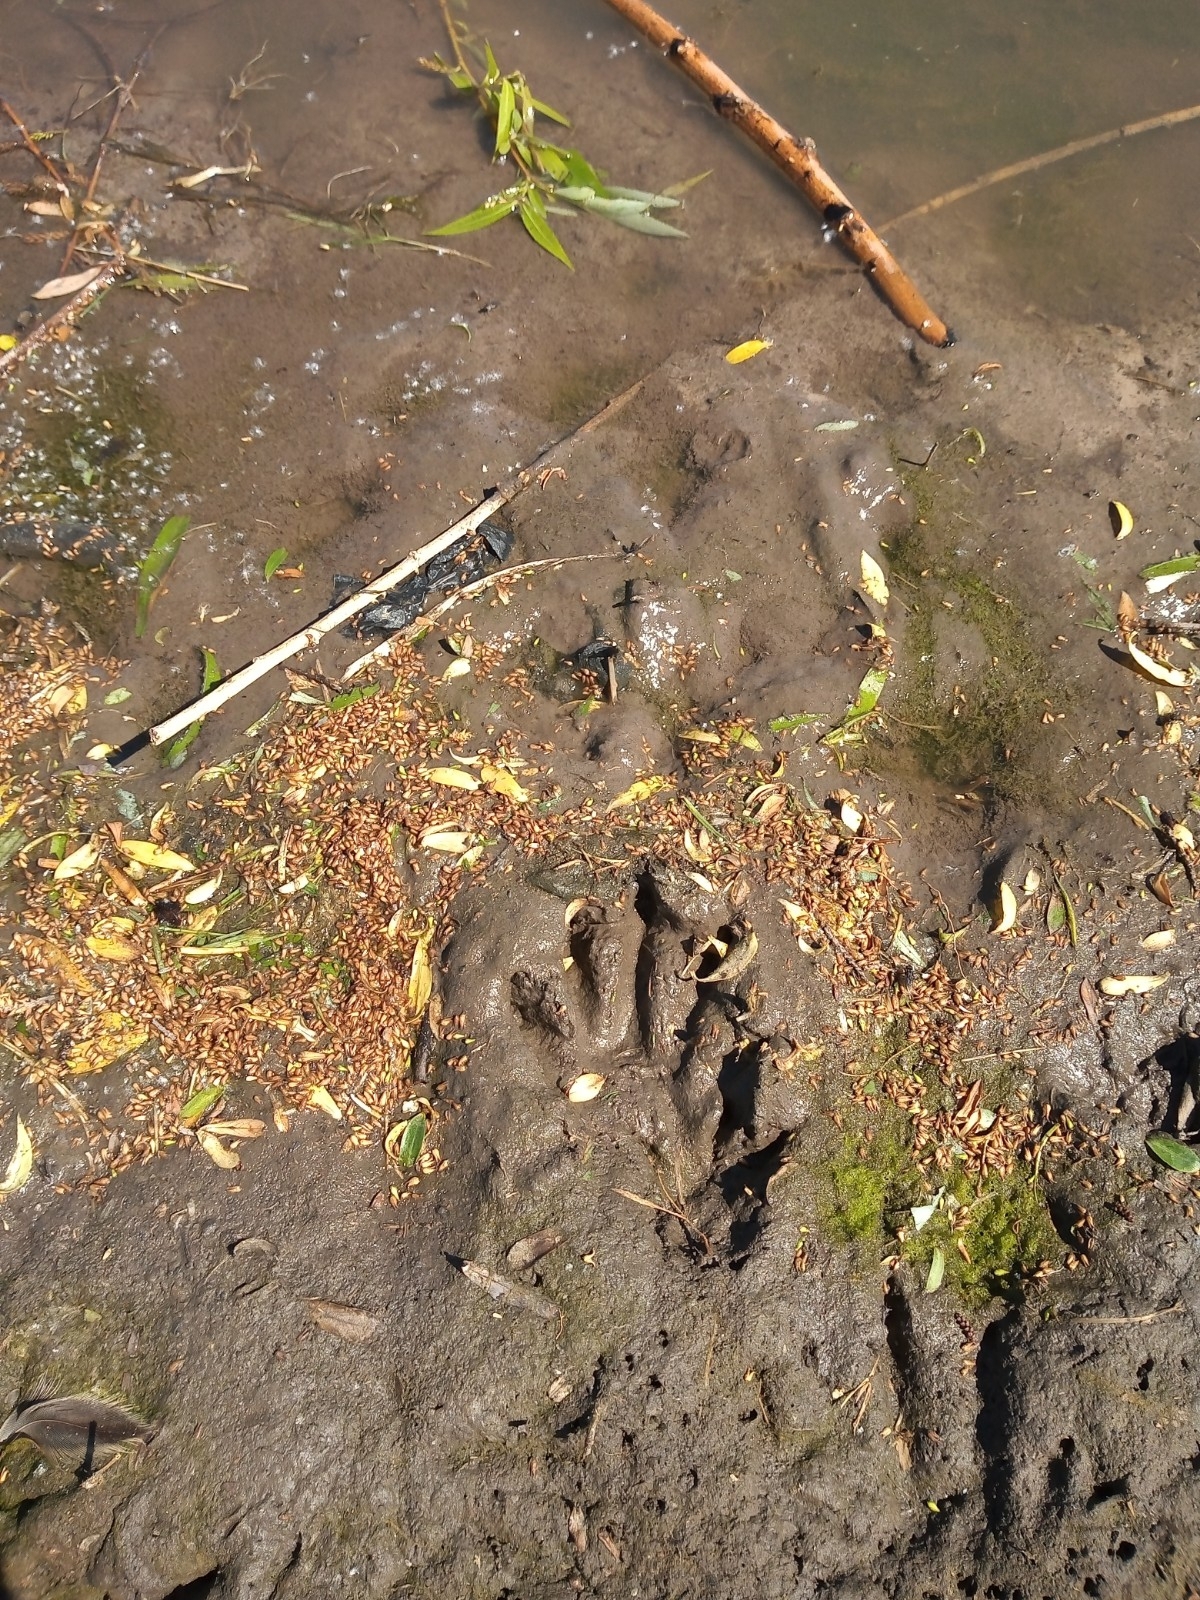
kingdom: Animalia
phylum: Chordata
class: Mammalia
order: Carnivora
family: Procyonidae
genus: Procyon
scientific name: Procyon cancrivorus
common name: Crab-eating raccoon
